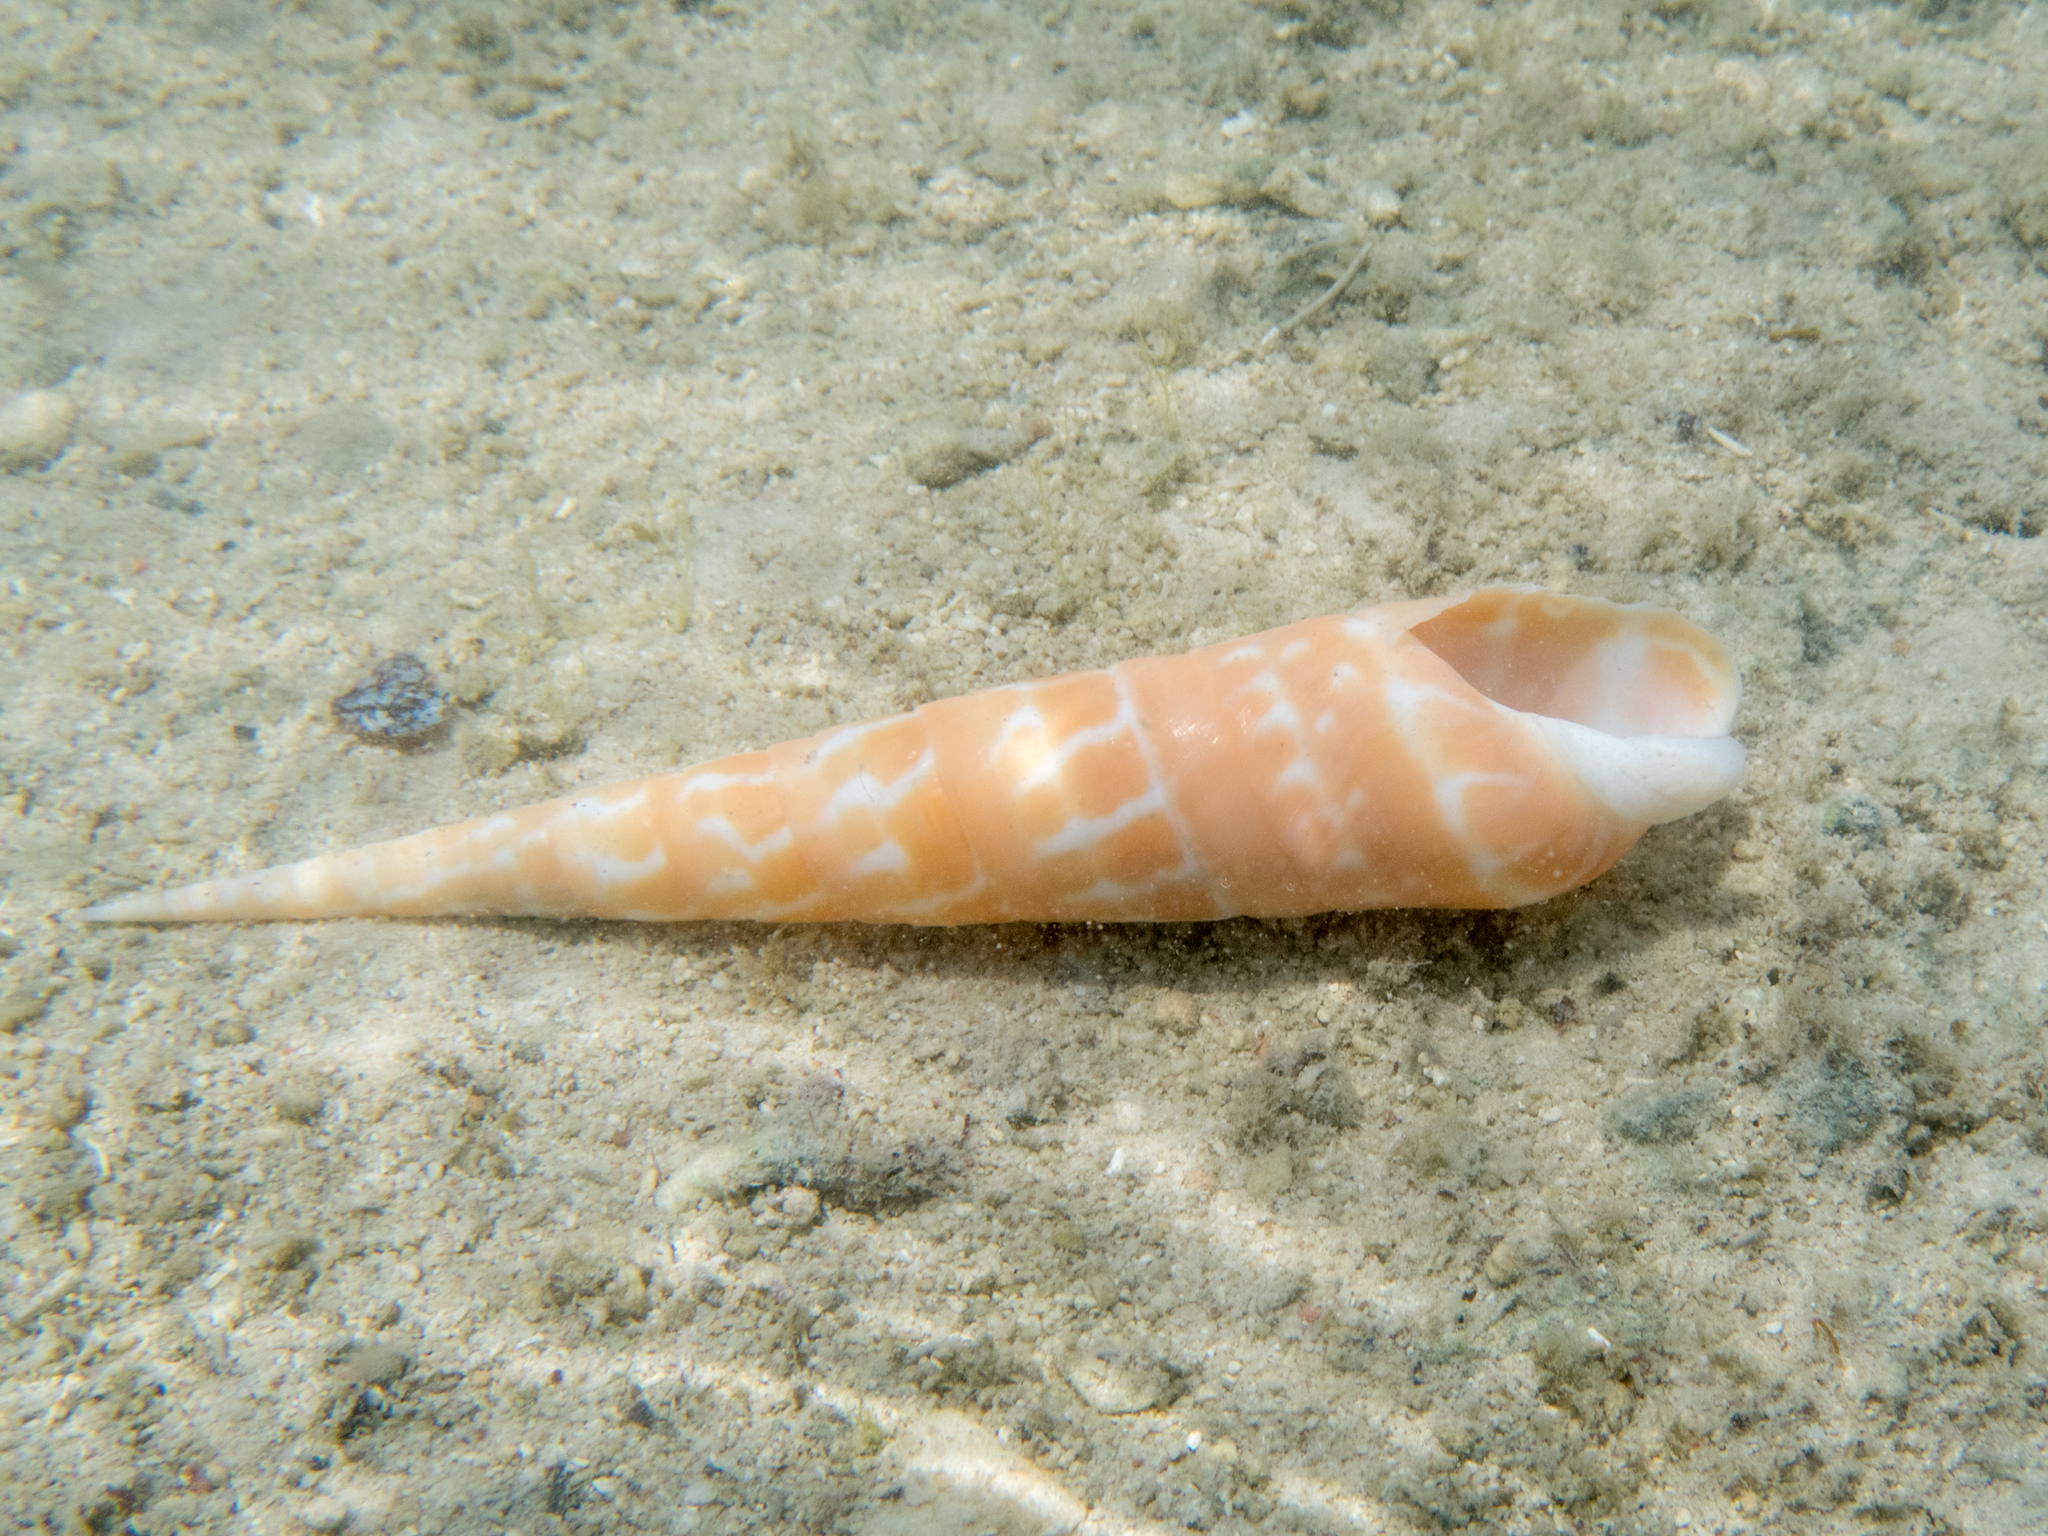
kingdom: Animalia
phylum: Mollusca
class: Gastropoda
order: Neogastropoda
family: Terebridae
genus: Oxymeris
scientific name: Oxymeris dimidiata
